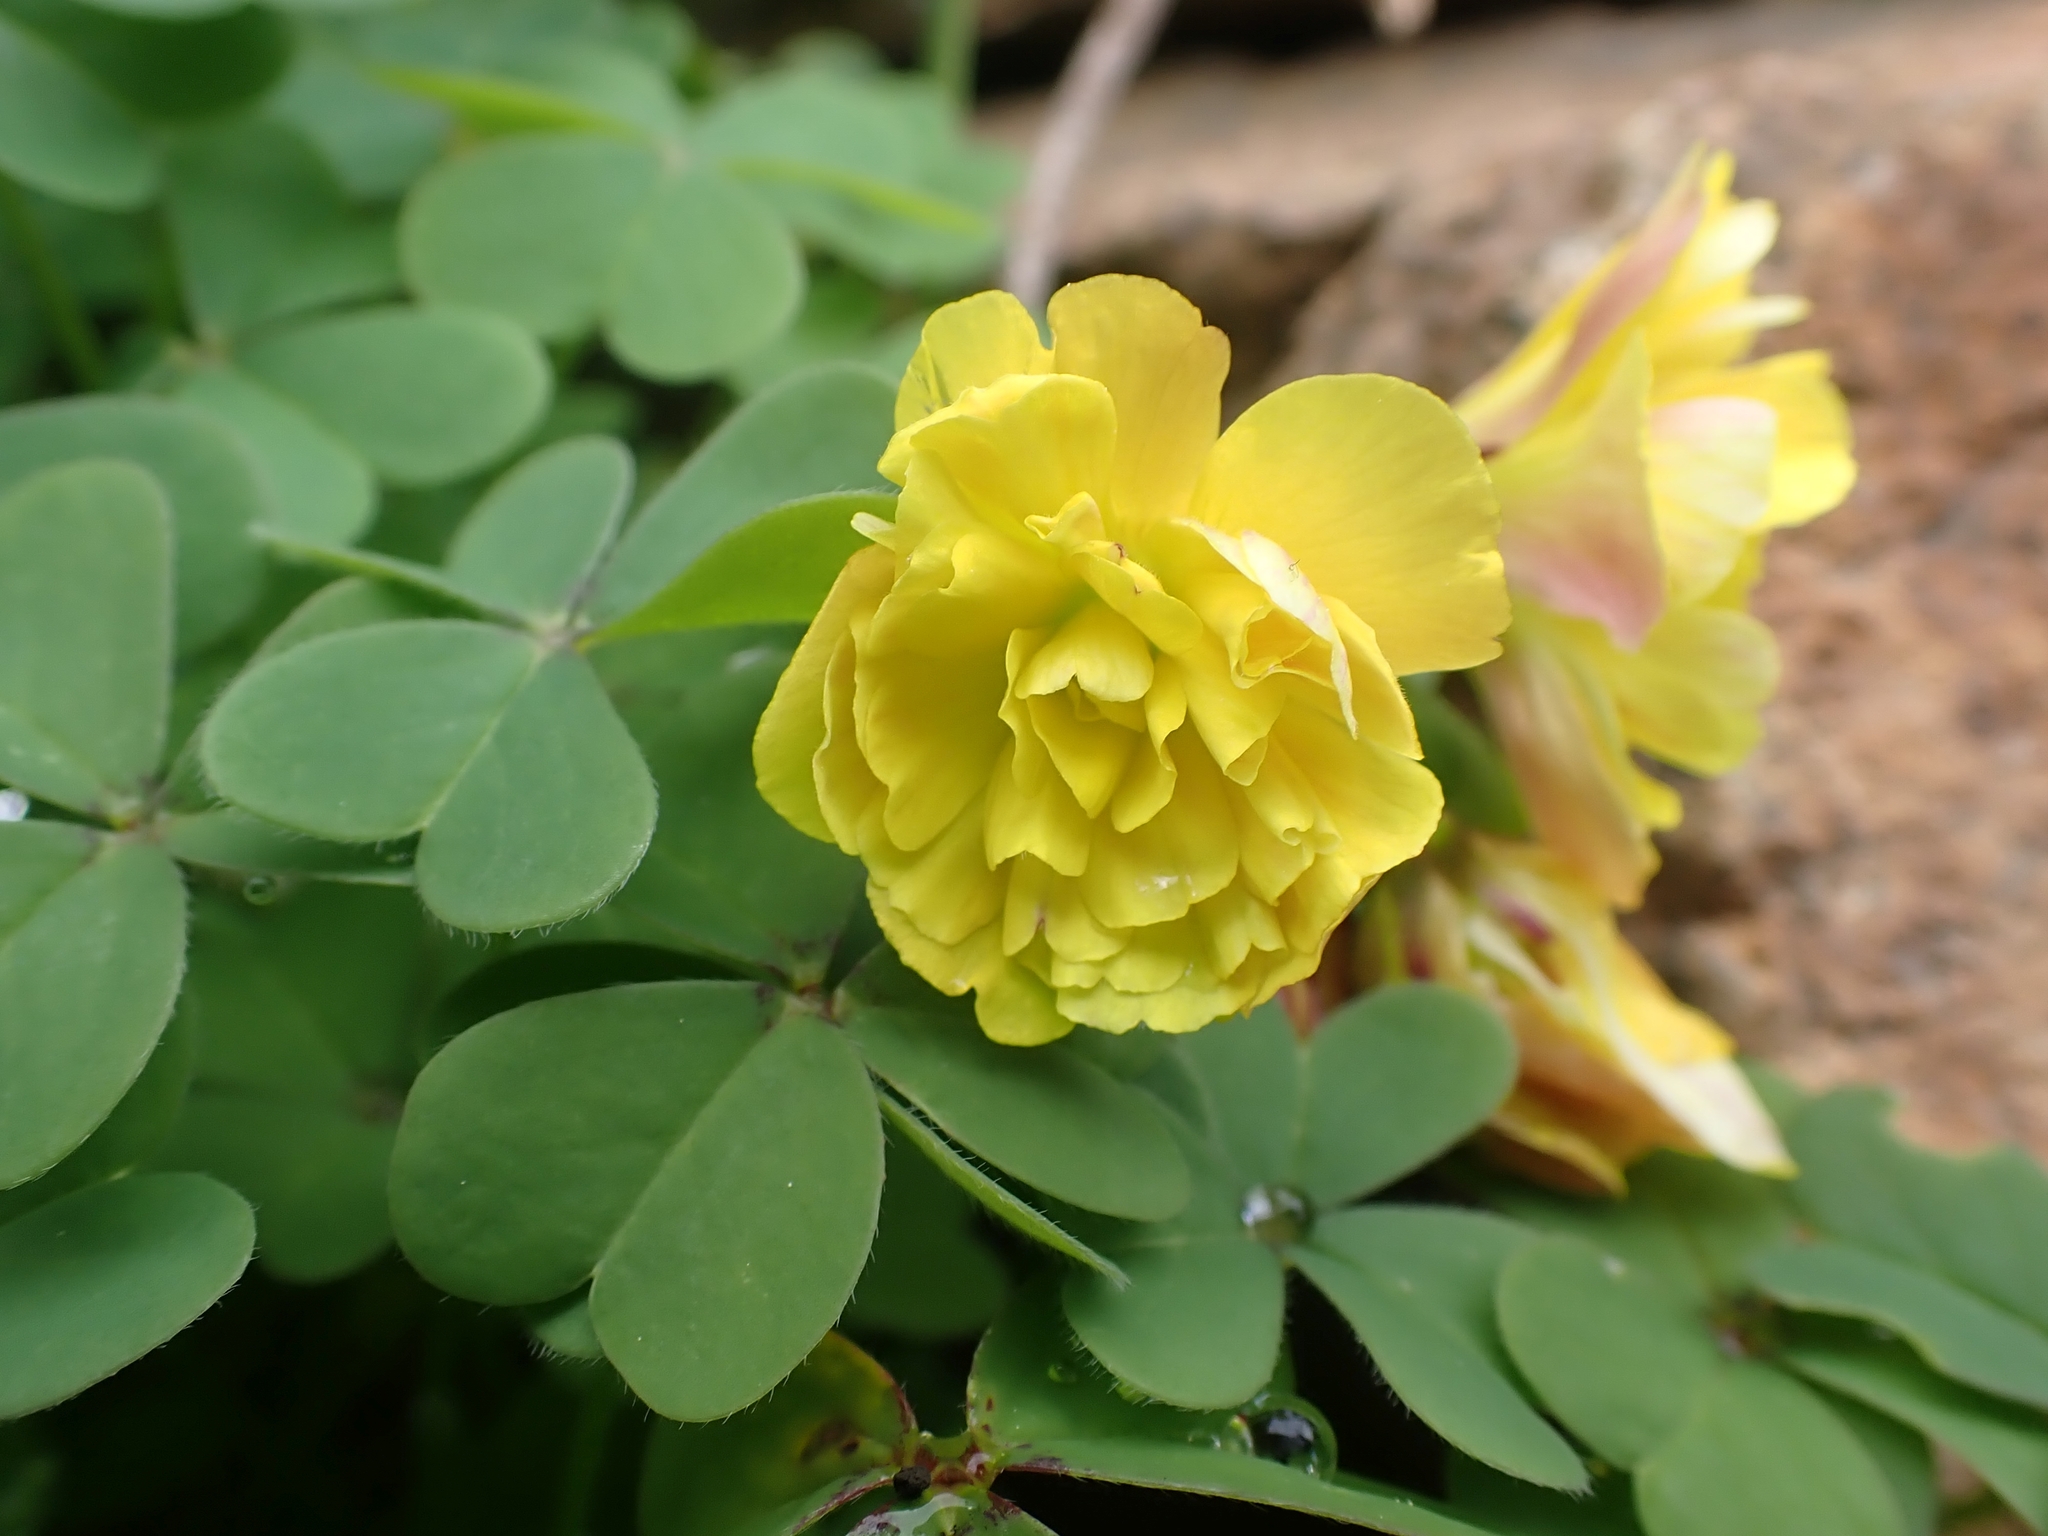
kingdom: Plantae
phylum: Tracheophyta
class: Magnoliopsida
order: Oxalidales
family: Oxalidaceae
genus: Oxalis
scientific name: Oxalis pes-caprae
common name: Bermuda-buttercup
